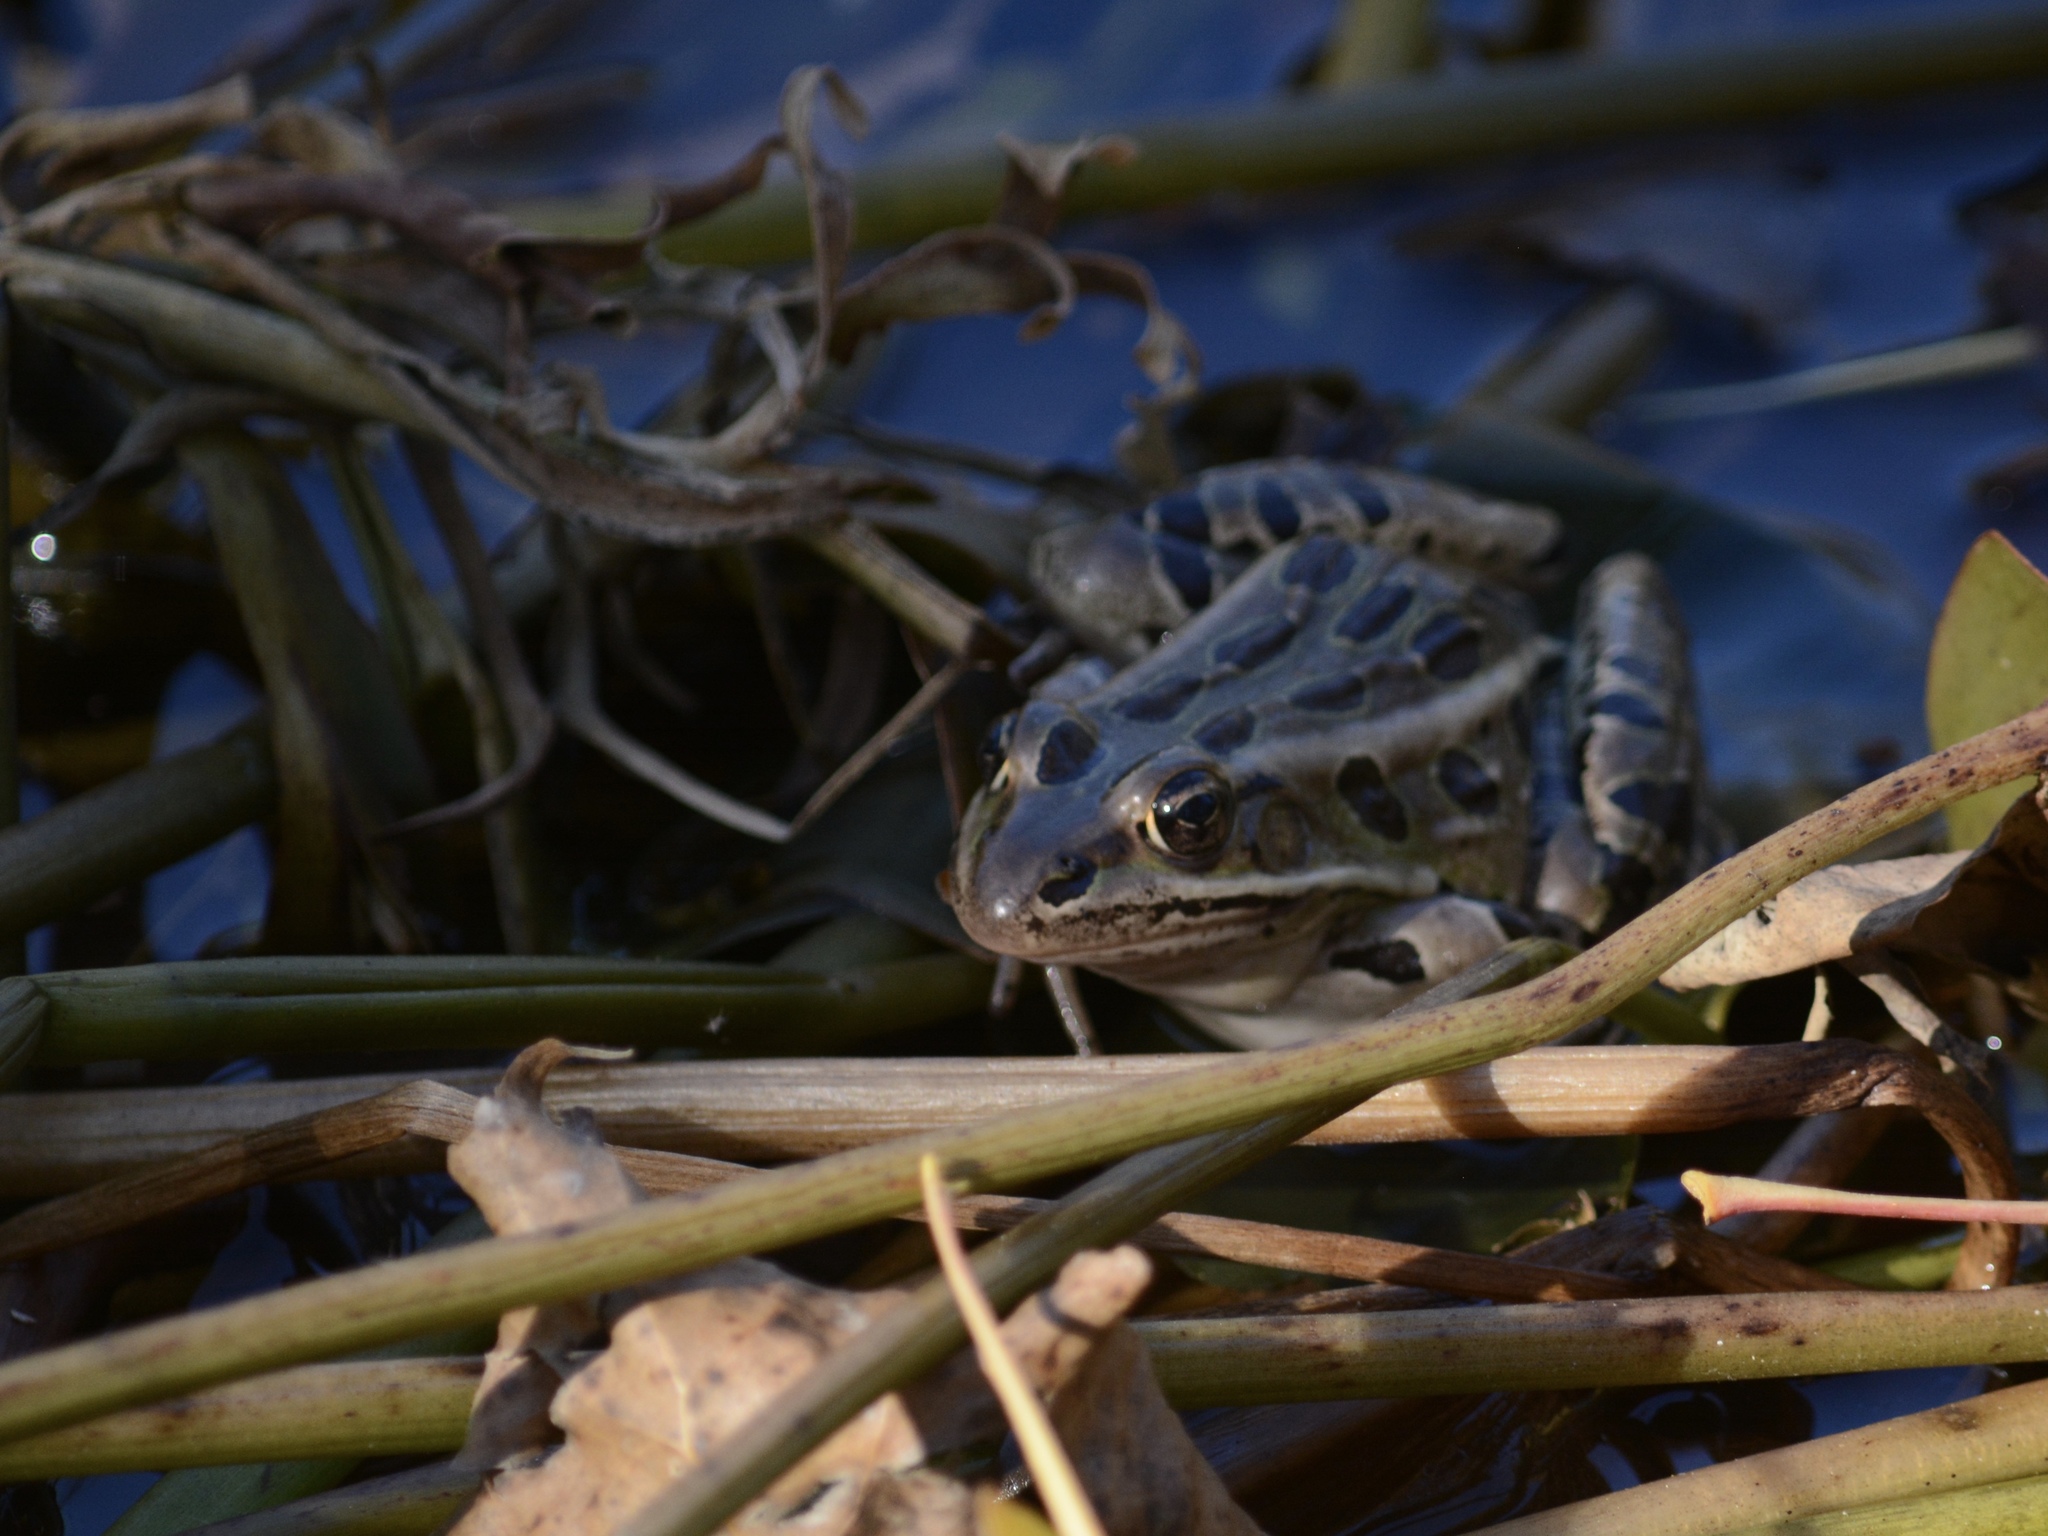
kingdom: Animalia
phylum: Chordata
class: Amphibia
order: Anura
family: Ranidae
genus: Lithobates
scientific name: Lithobates pipiens
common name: Northern leopard frog
